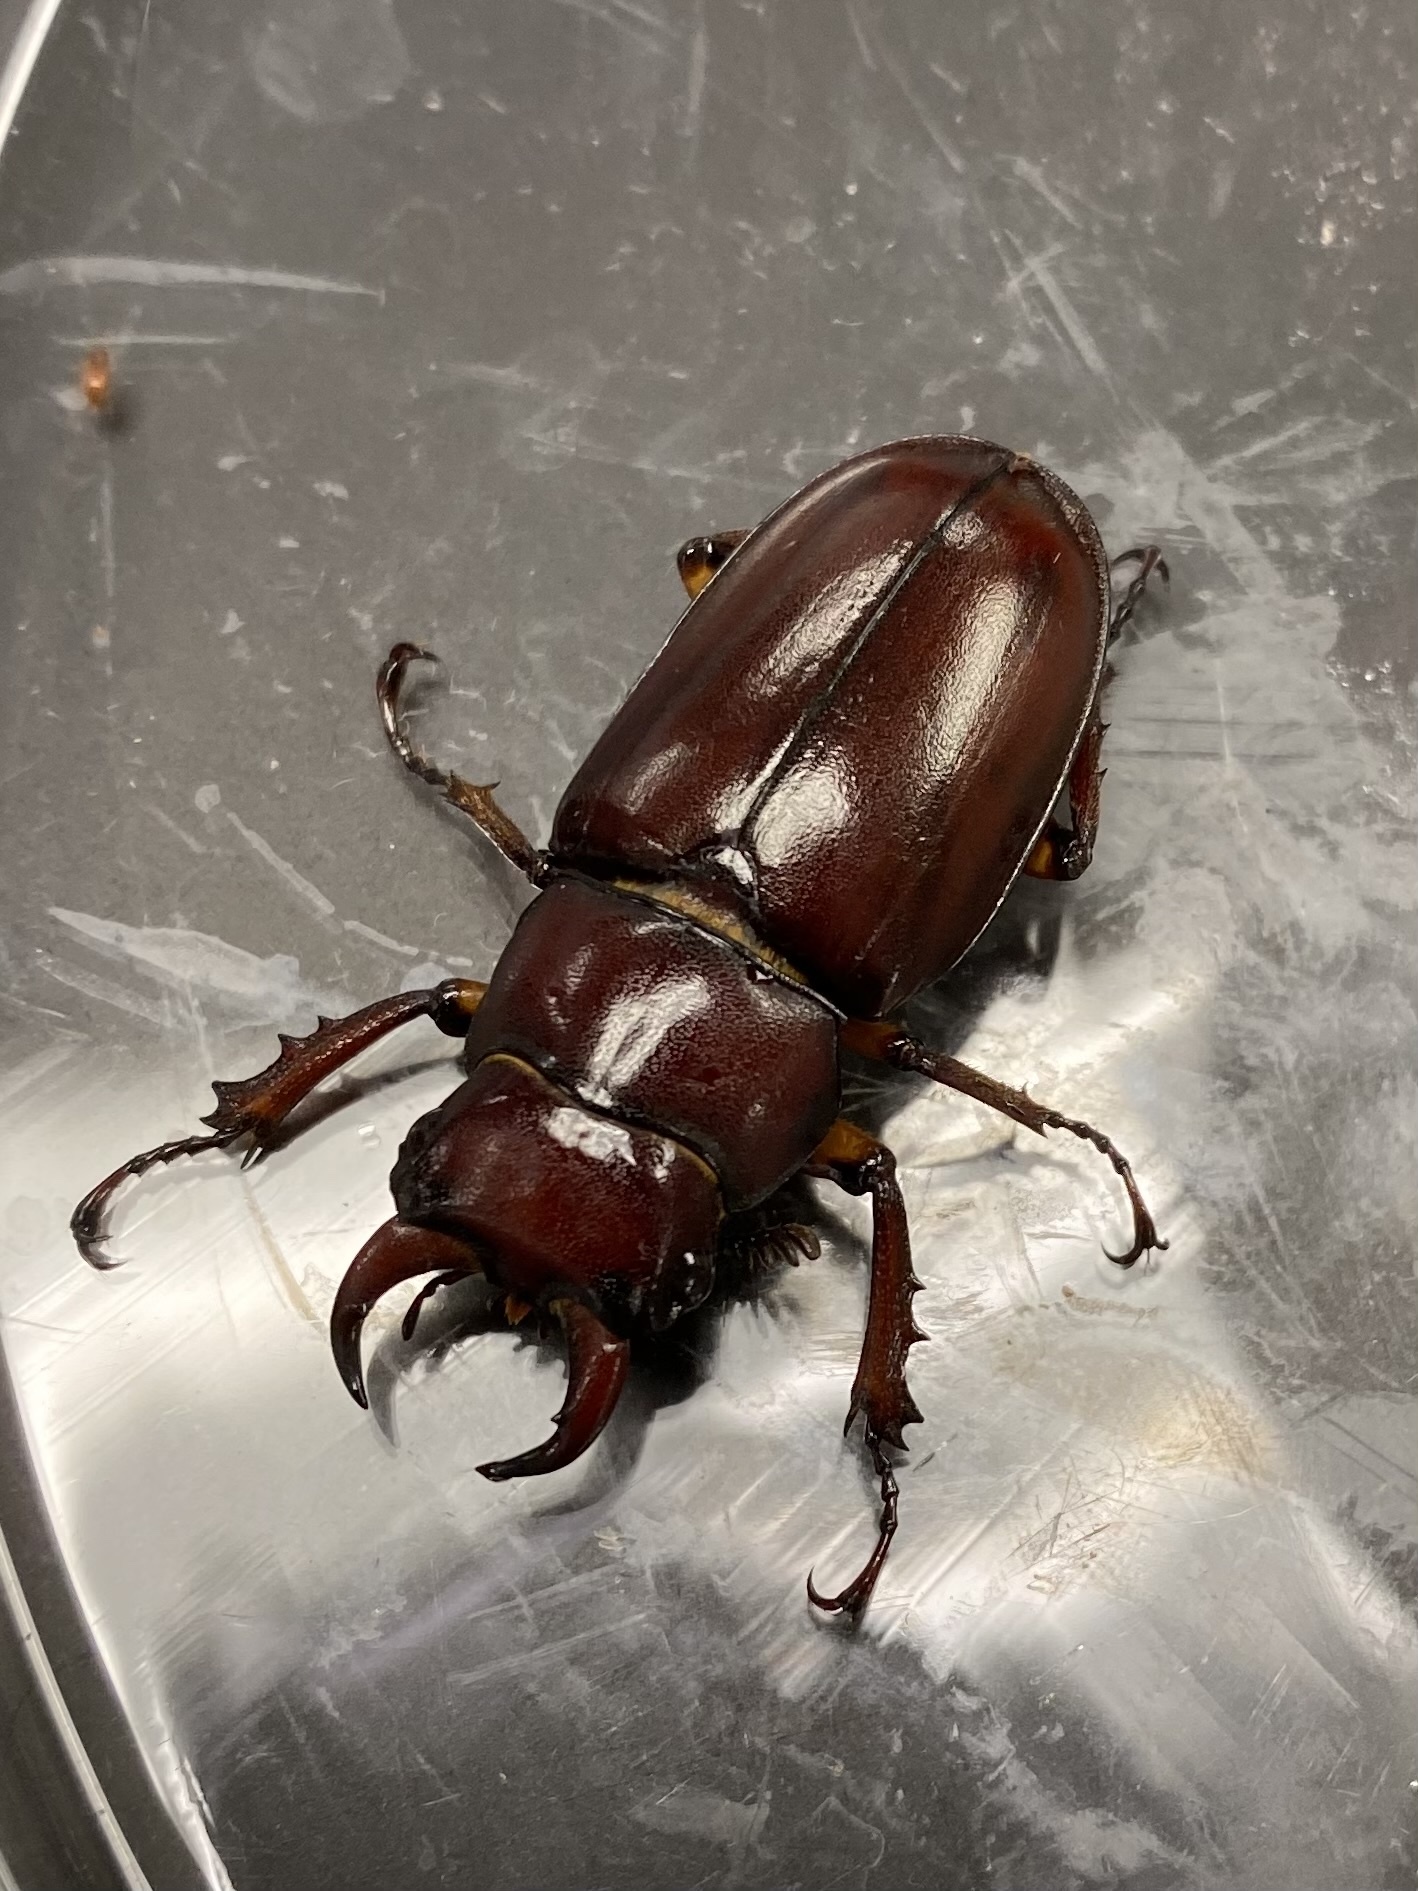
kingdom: Animalia
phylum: Arthropoda
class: Insecta
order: Coleoptera
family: Lucanidae
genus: Lucanus
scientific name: Lucanus capreolus
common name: Stag beetle
